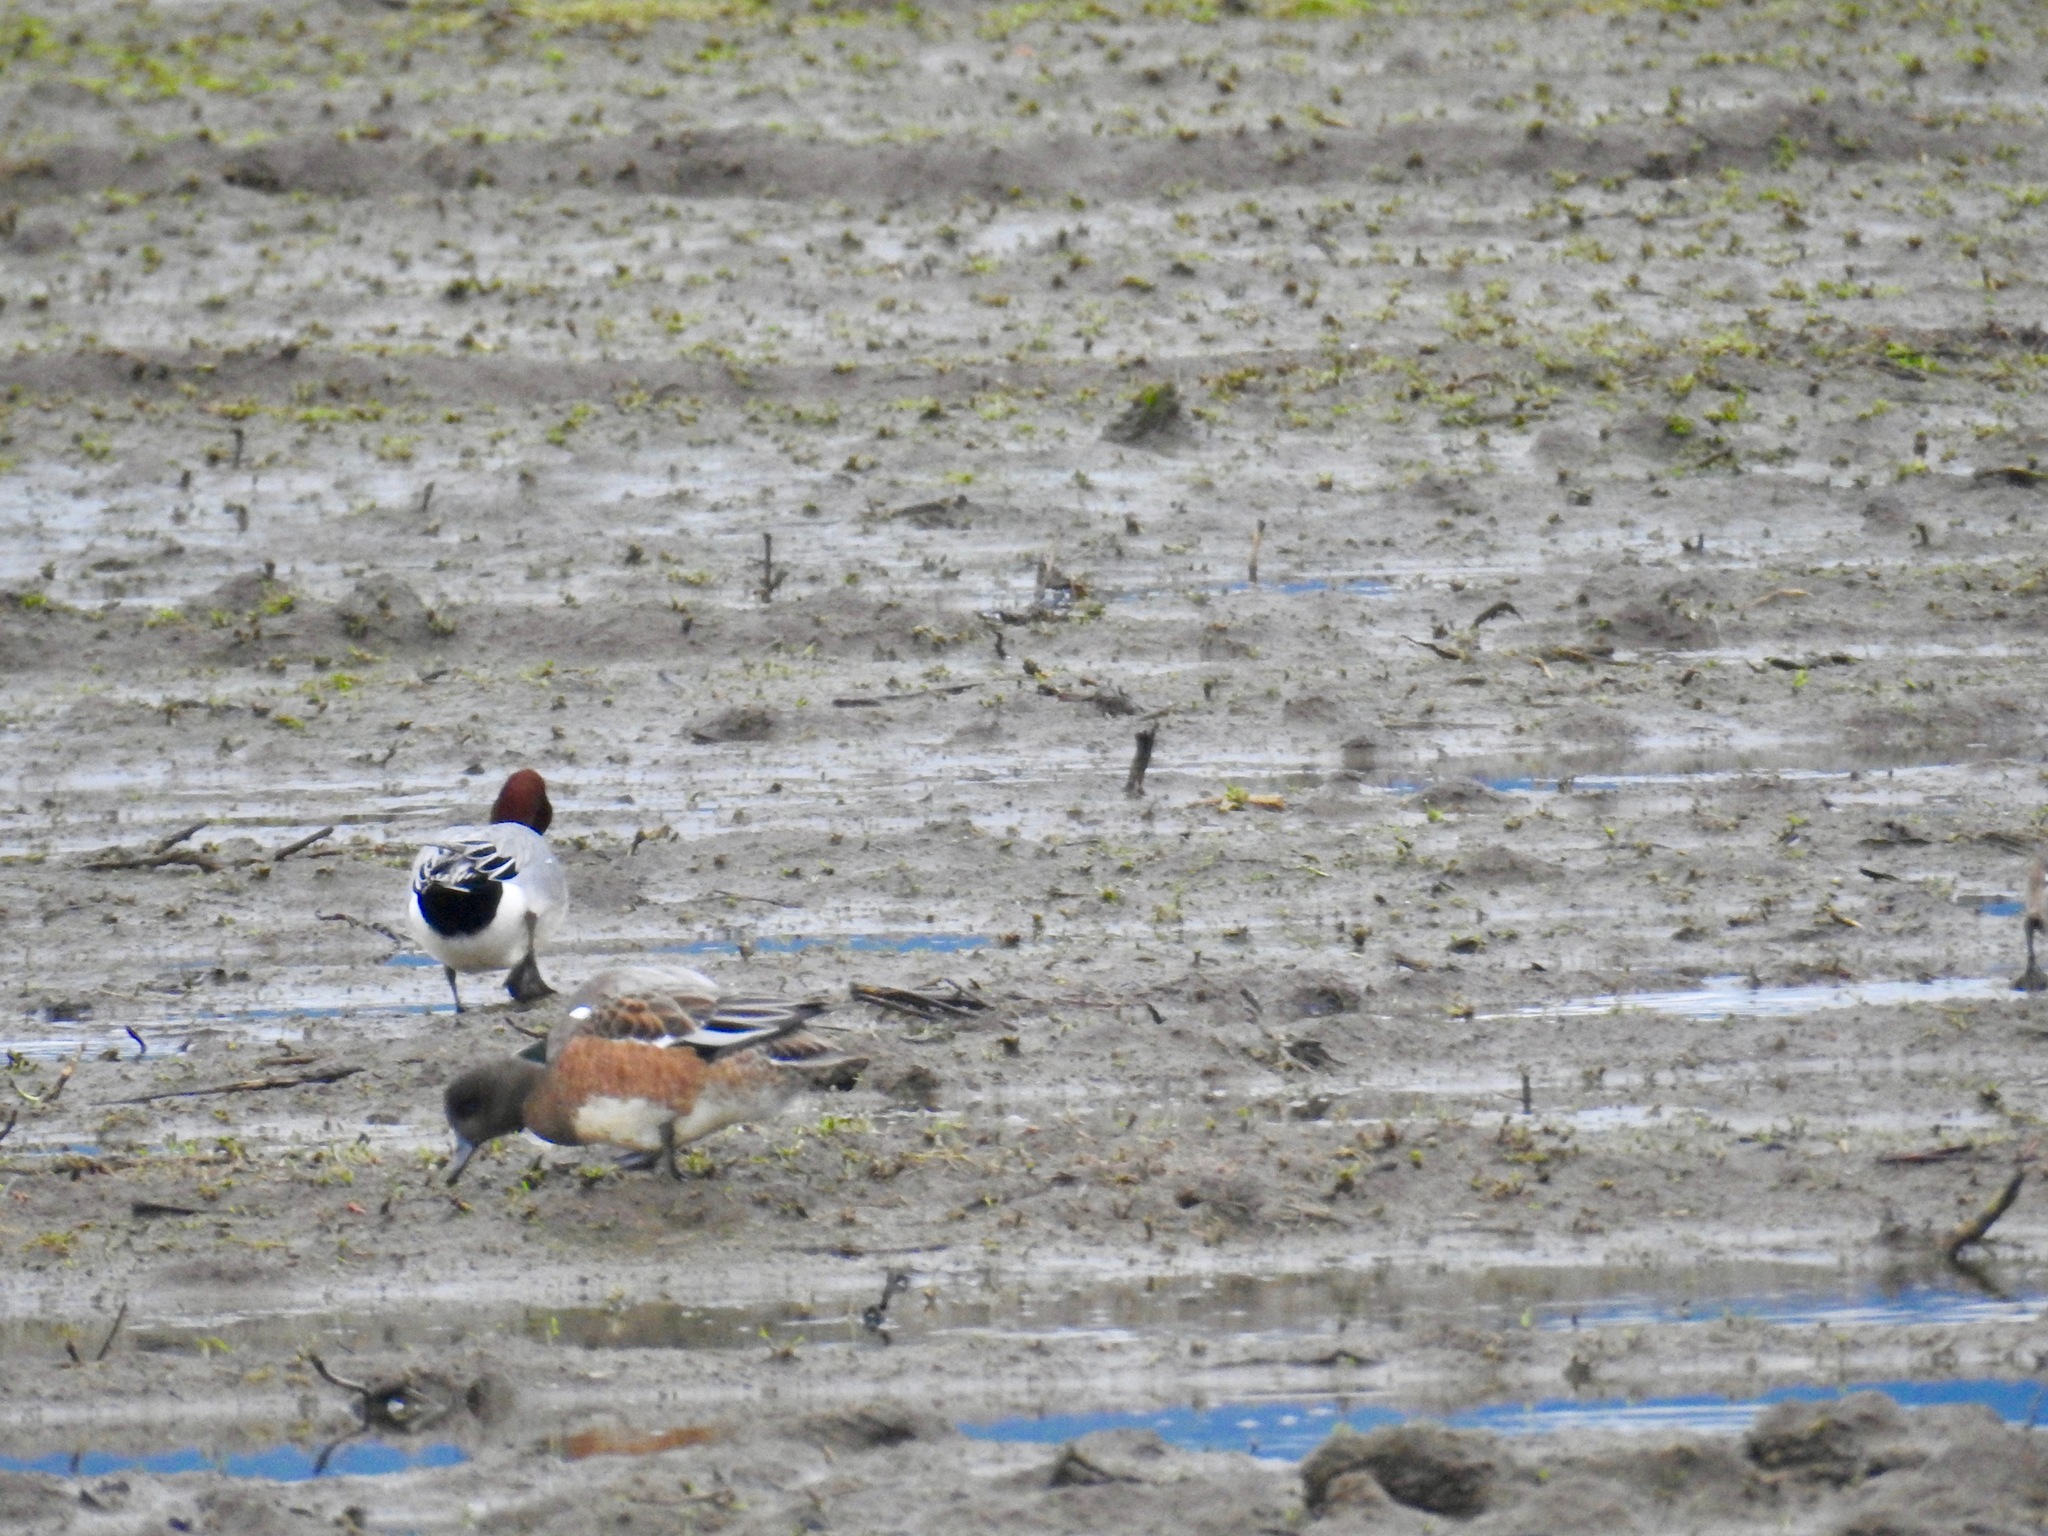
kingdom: Animalia
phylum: Chordata
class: Aves
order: Anseriformes
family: Anatidae
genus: Mareca
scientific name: Mareca penelope
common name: Eurasian wigeon
